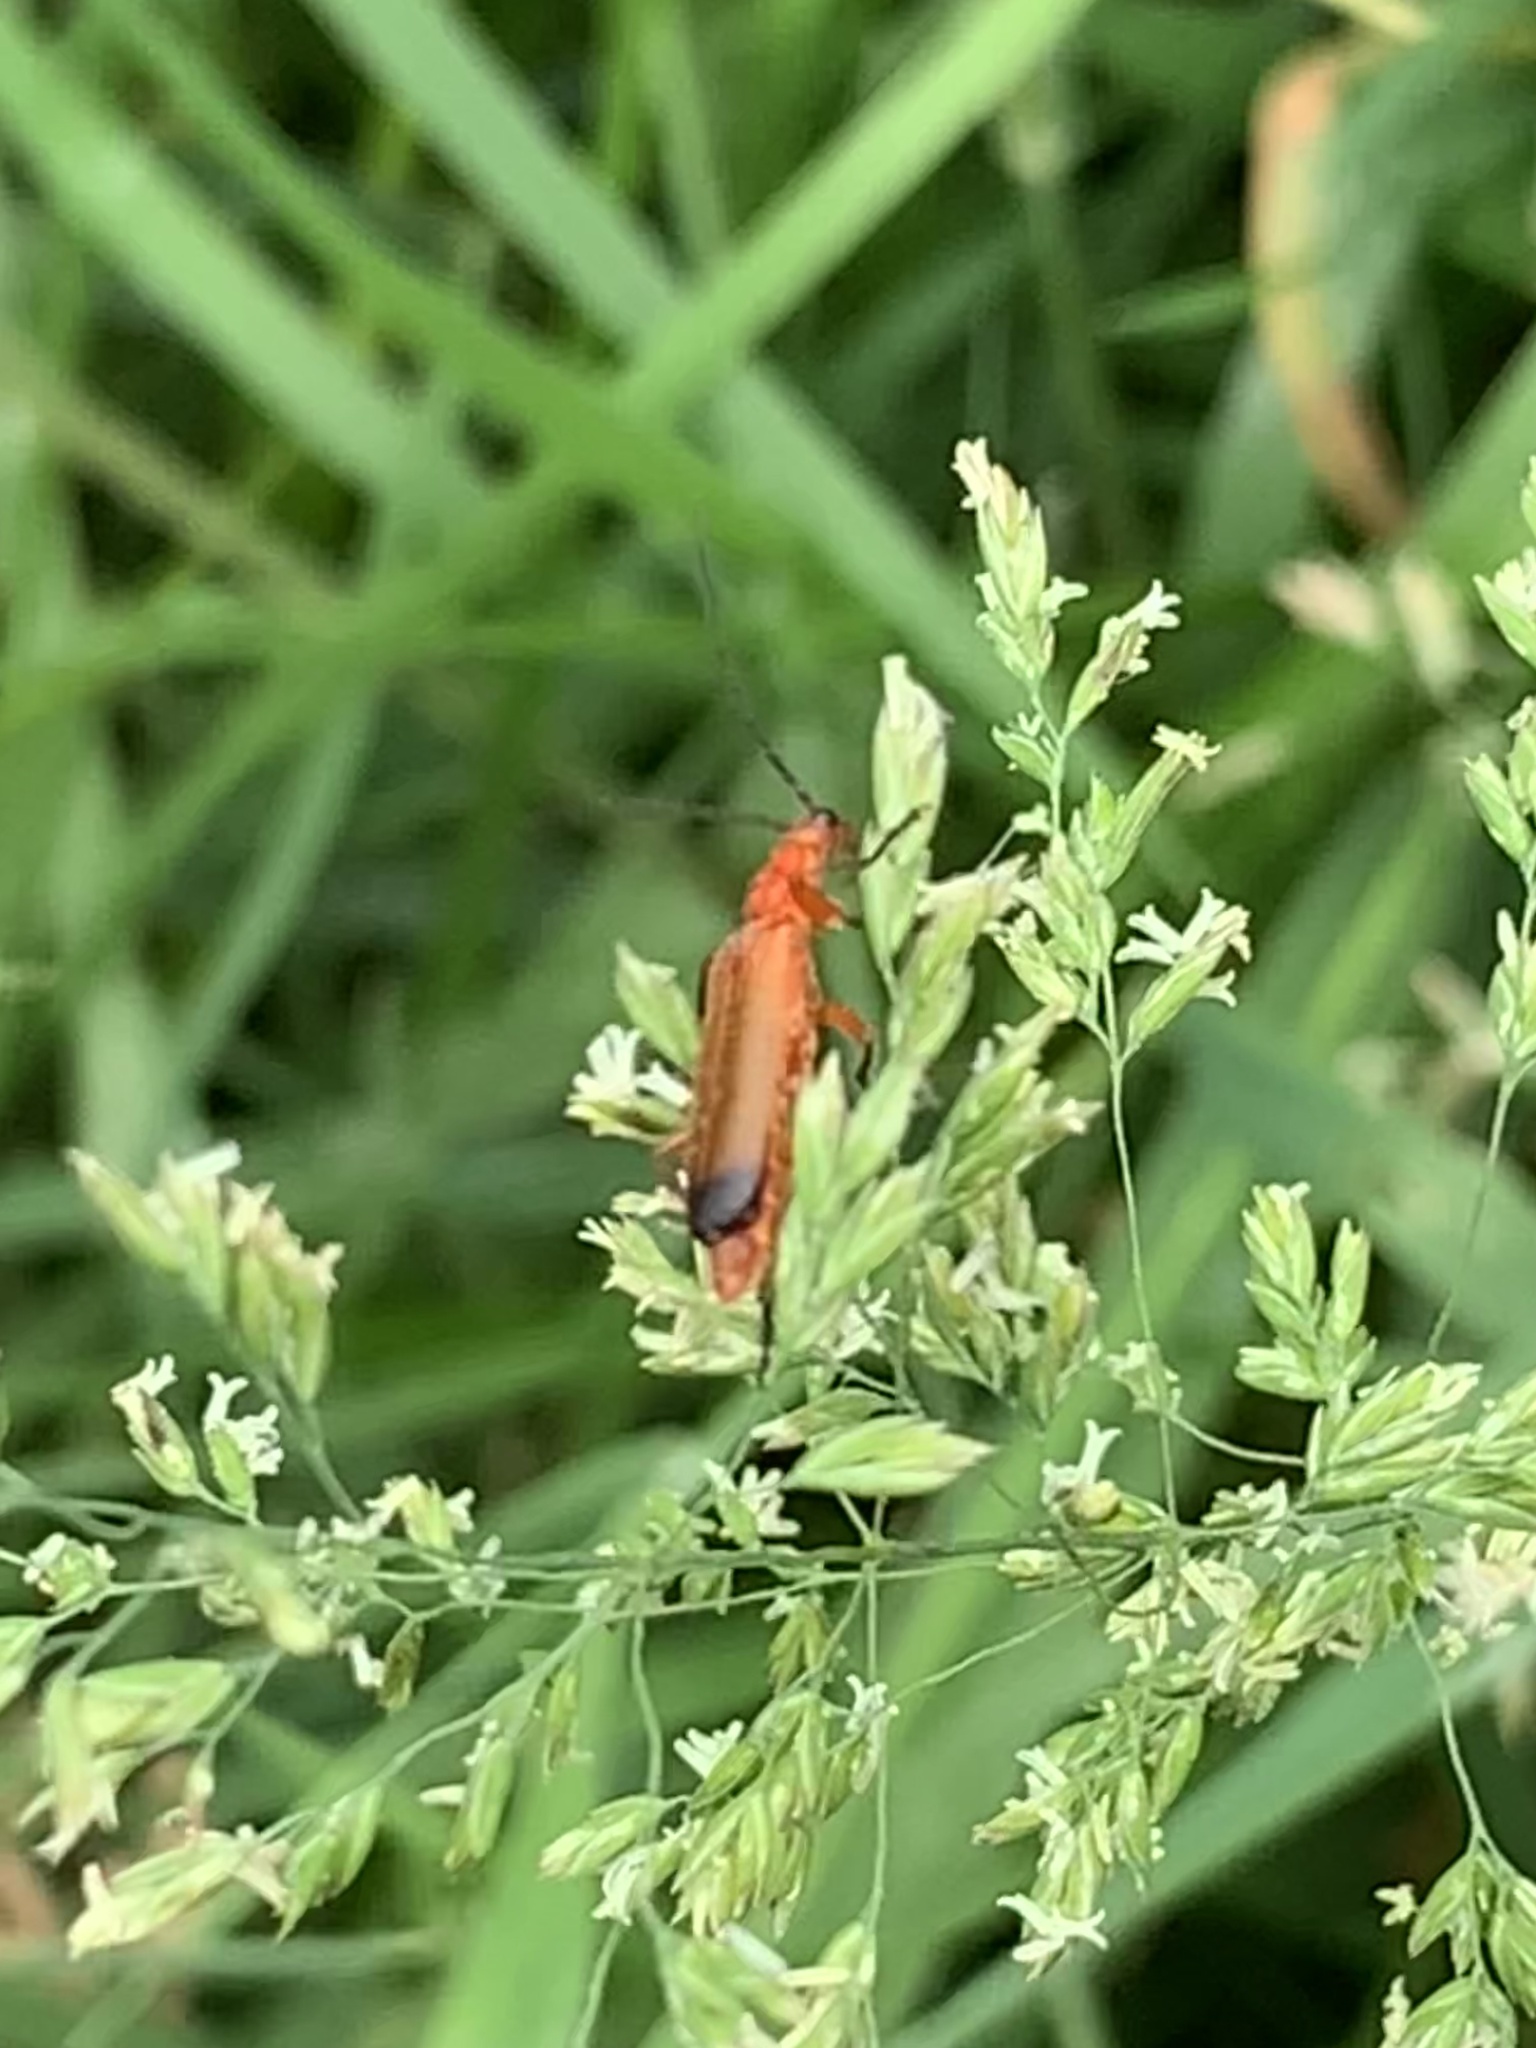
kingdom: Animalia
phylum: Arthropoda
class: Insecta
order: Coleoptera
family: Cantharidae
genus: Rhagonycha
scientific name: Rhagonycha fulva
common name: Common red soldier beetle
